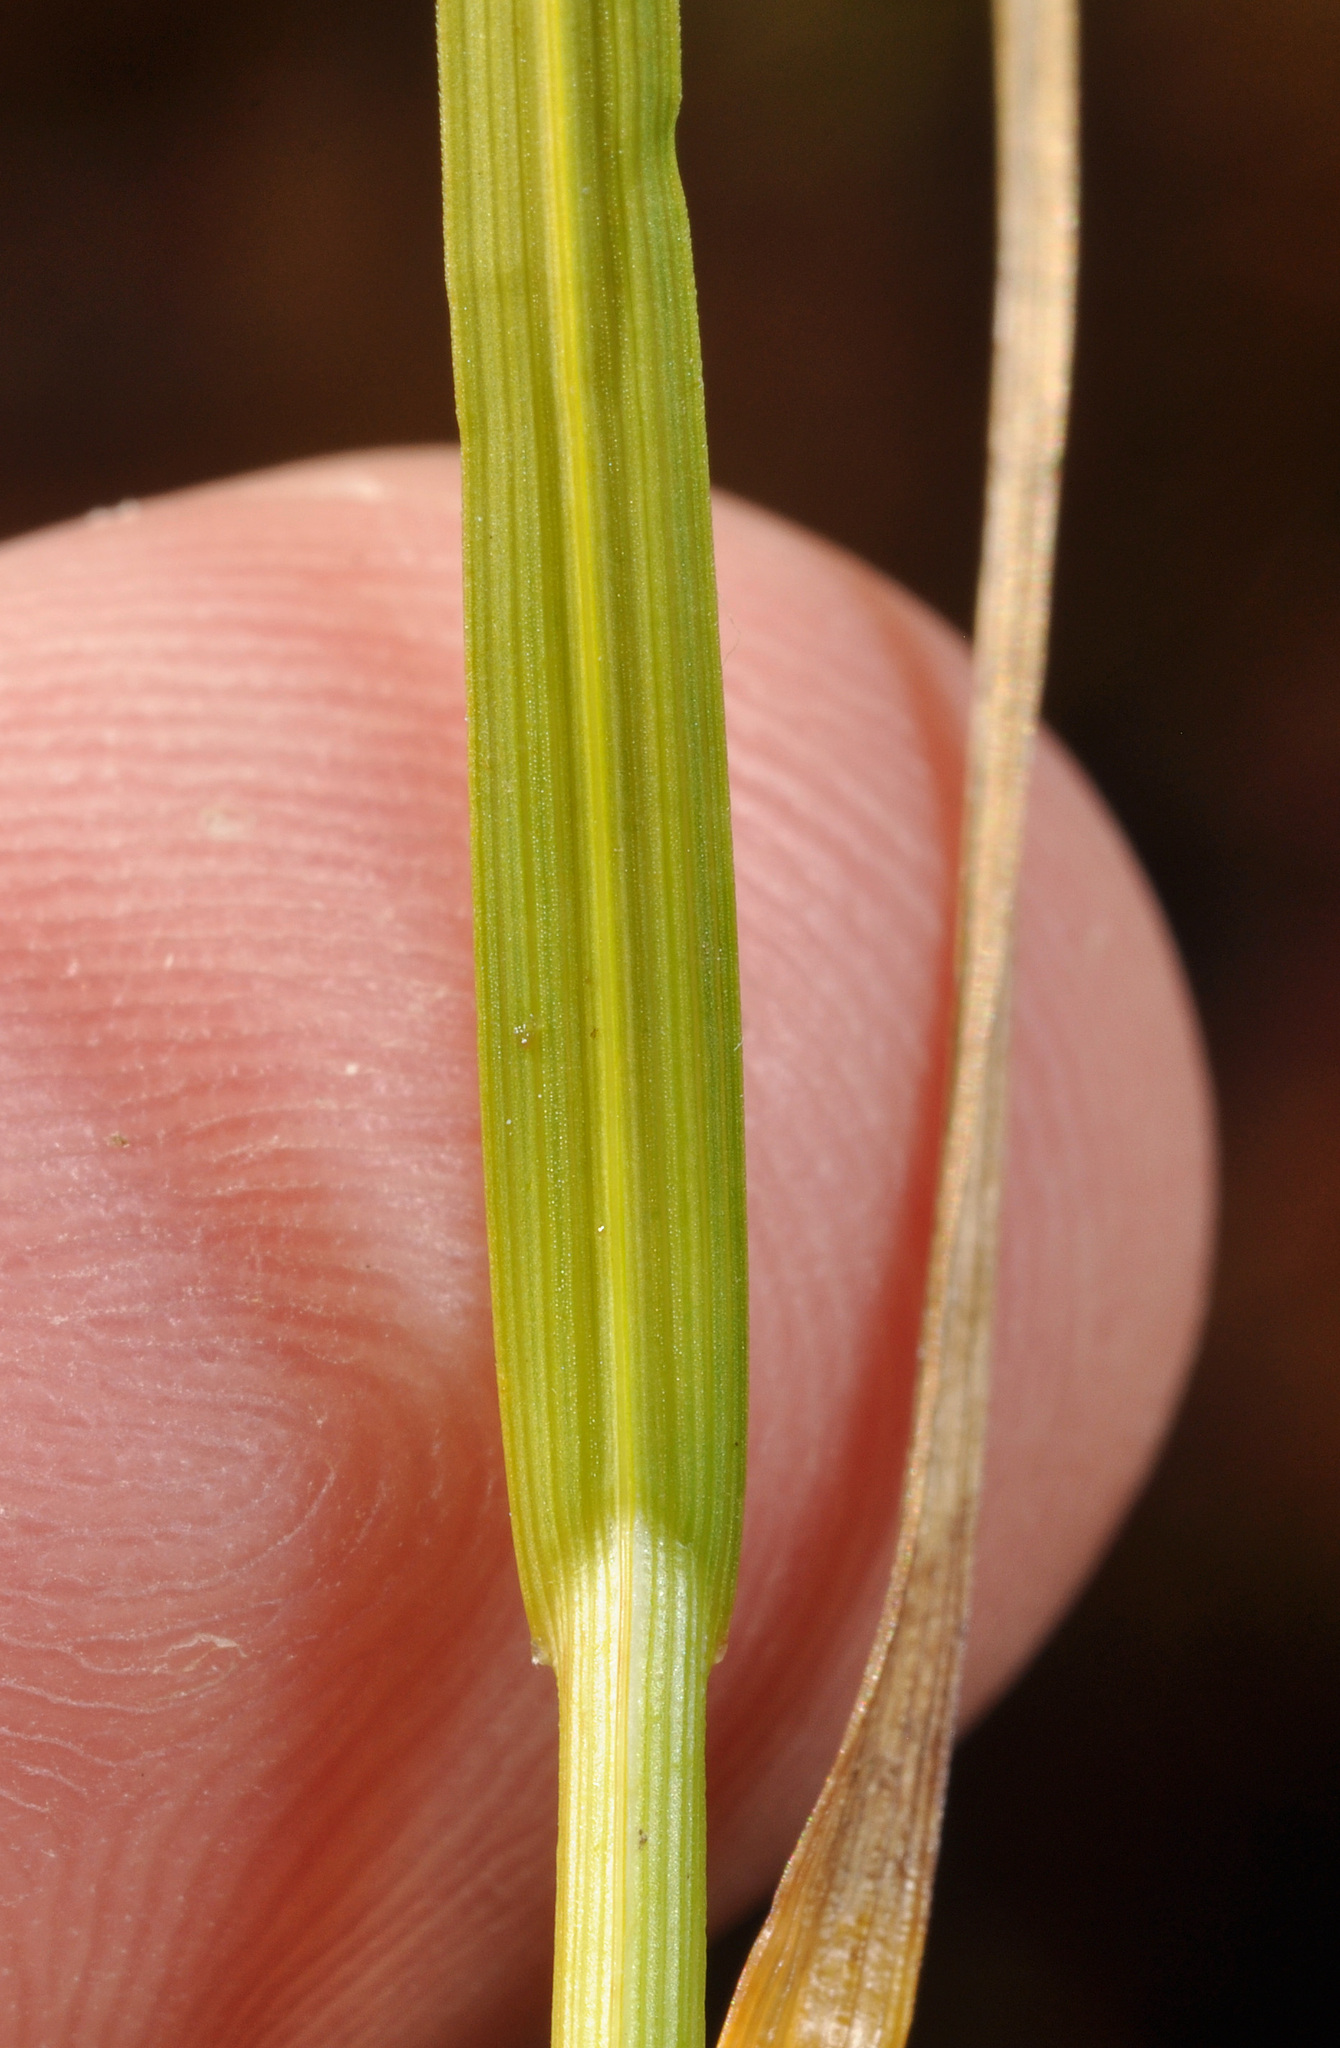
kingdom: Plantae
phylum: Tracheophyta
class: Liliopsida
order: Poales
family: Cyperaceae
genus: Carex
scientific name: Carex leporina
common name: Oval sedge
